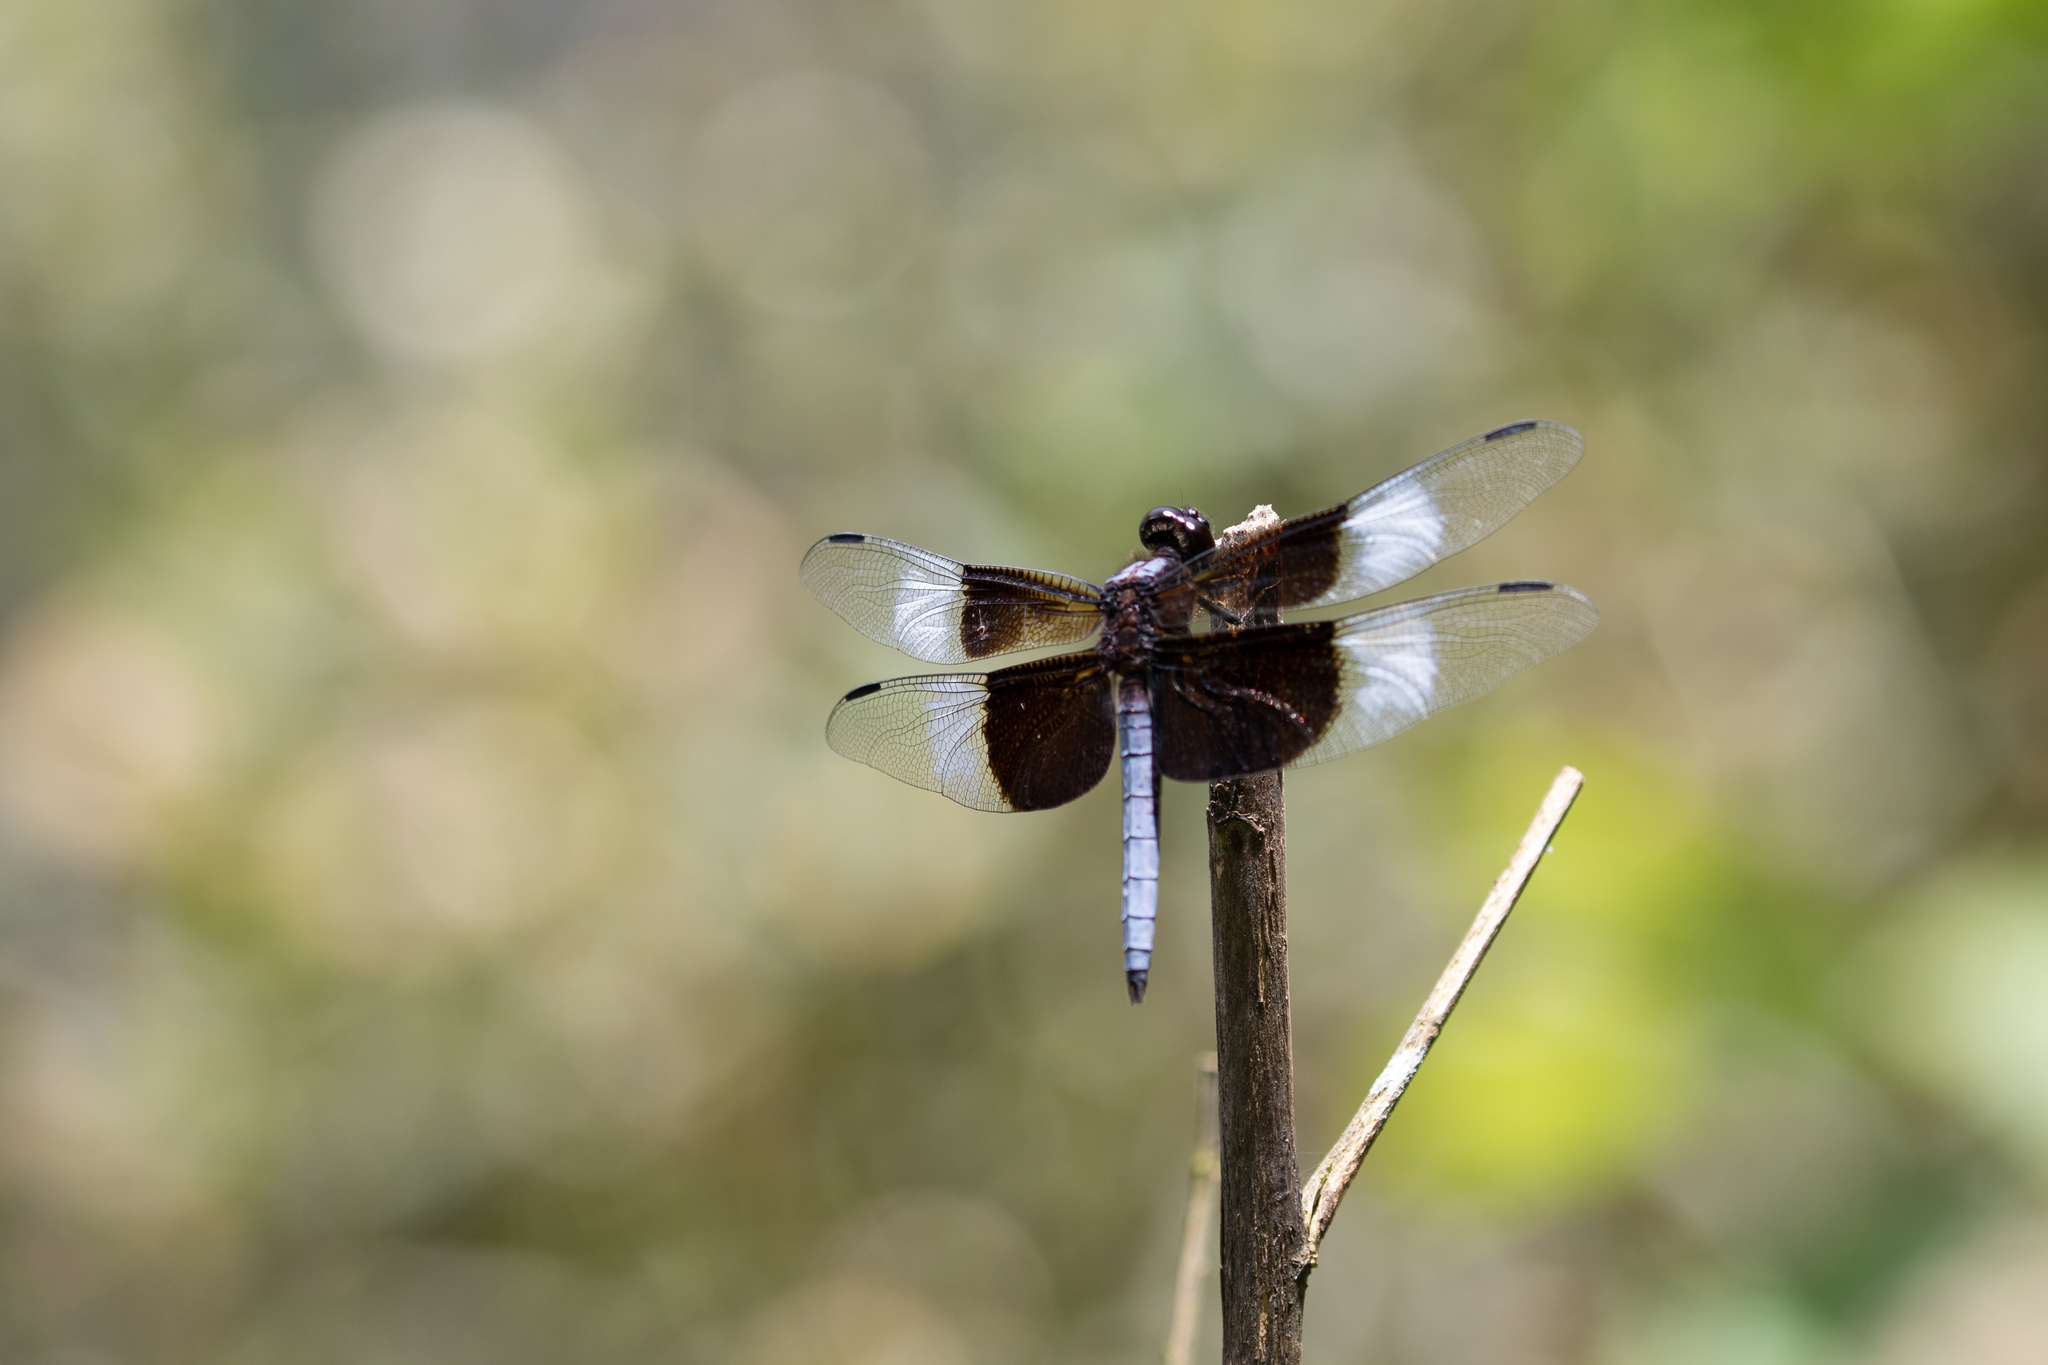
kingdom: Animalia
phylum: Arthropoda
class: Insecta
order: Odonata
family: Libellulidae
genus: Libellula
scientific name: Libellula luctuosa
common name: Widow skimmer
